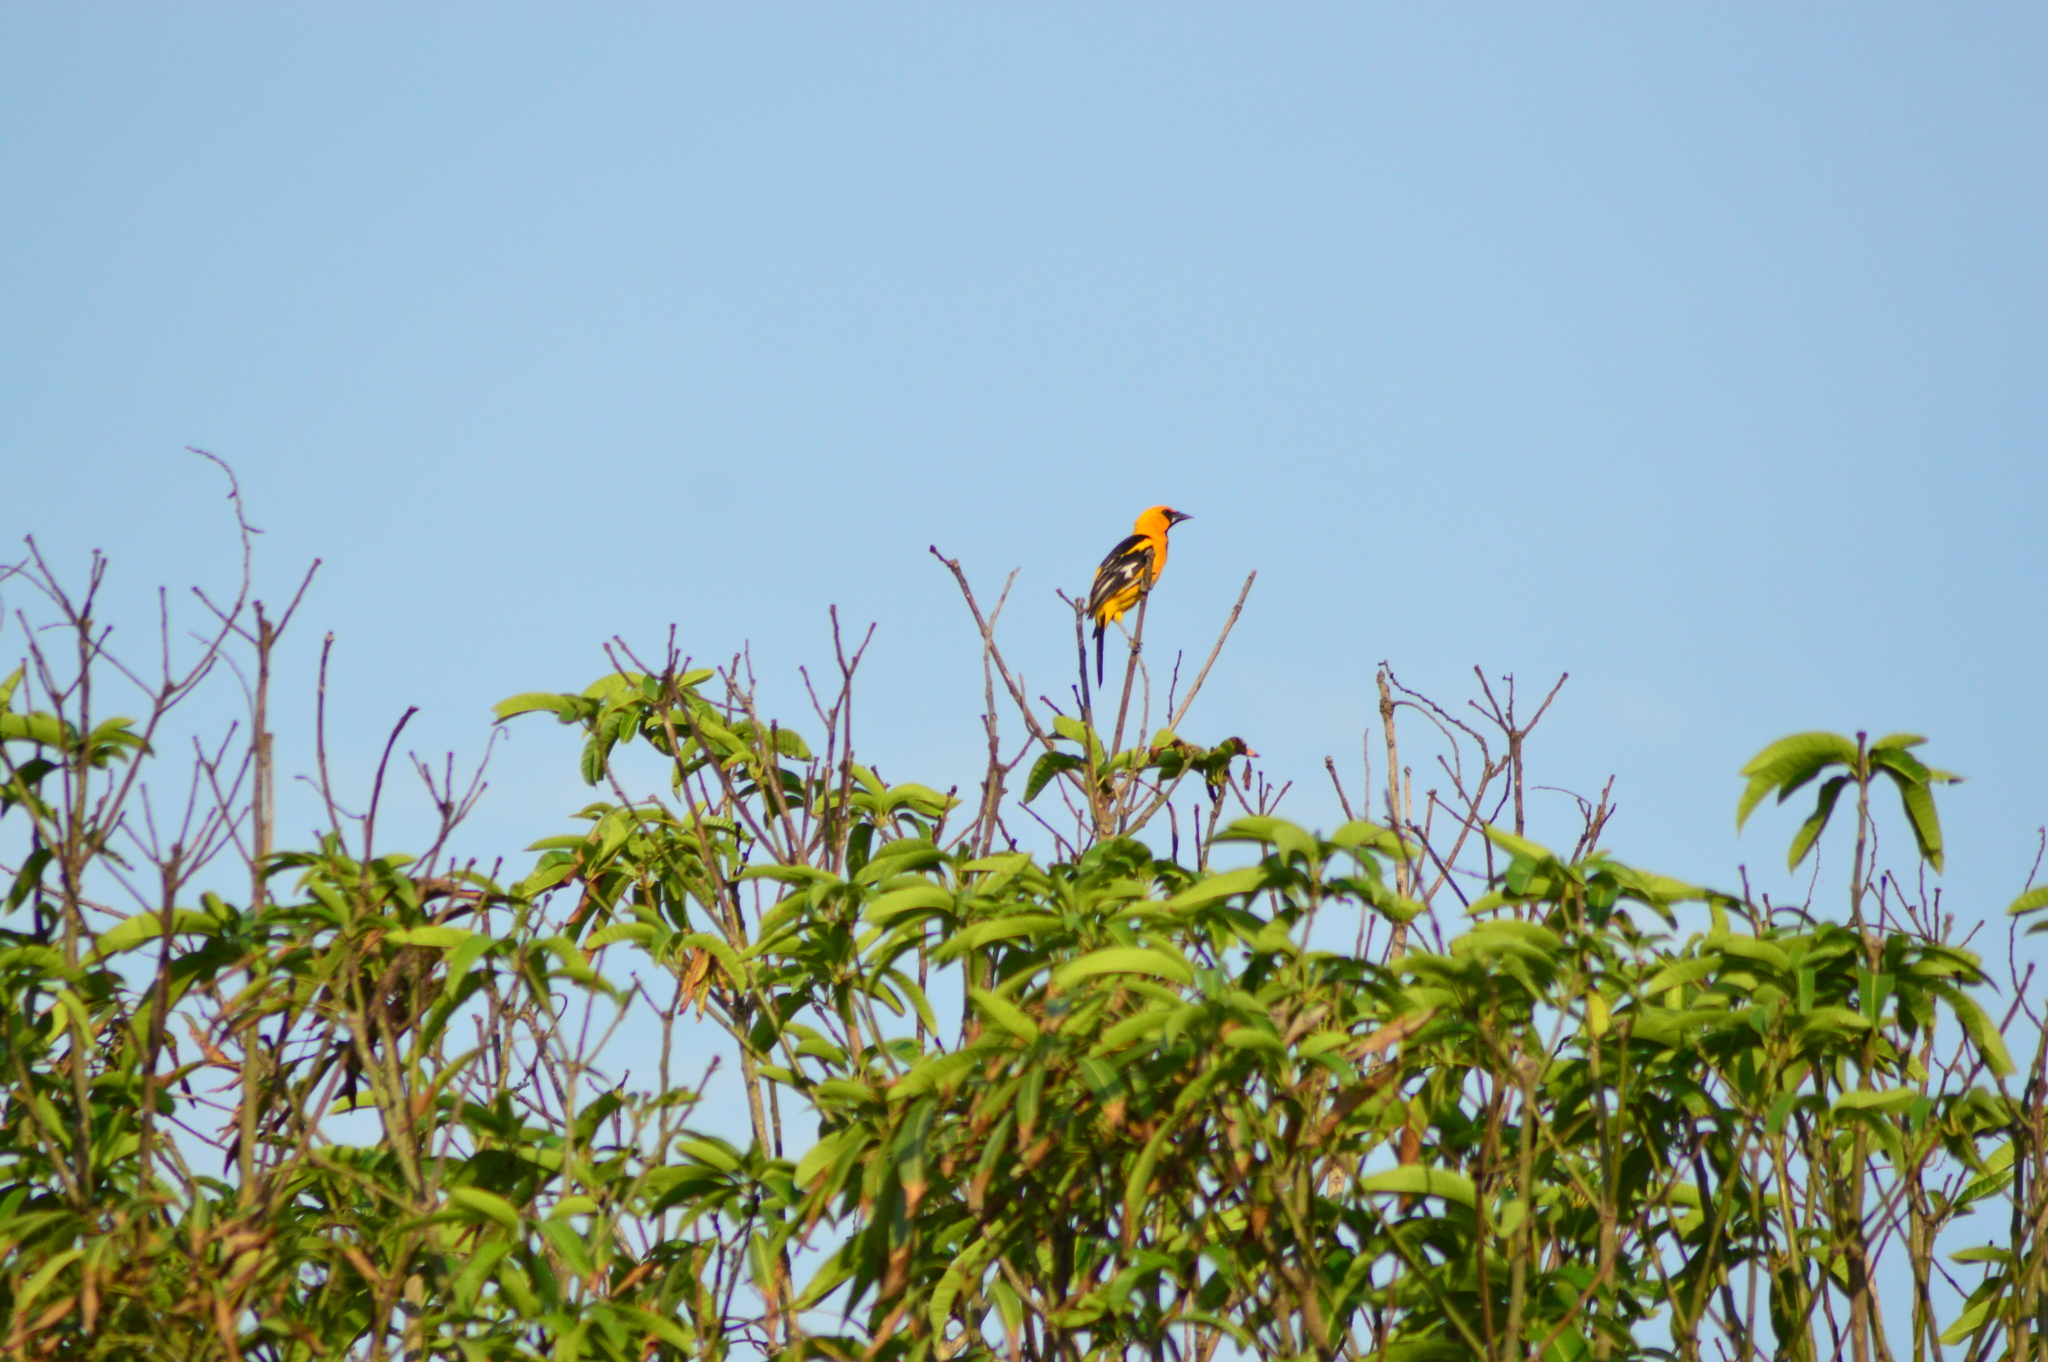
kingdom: Animalia
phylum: Chordata
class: Aves
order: Passeriformes
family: Icteridae
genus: Icterus
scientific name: Icterus gularis
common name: Altamira oriole
